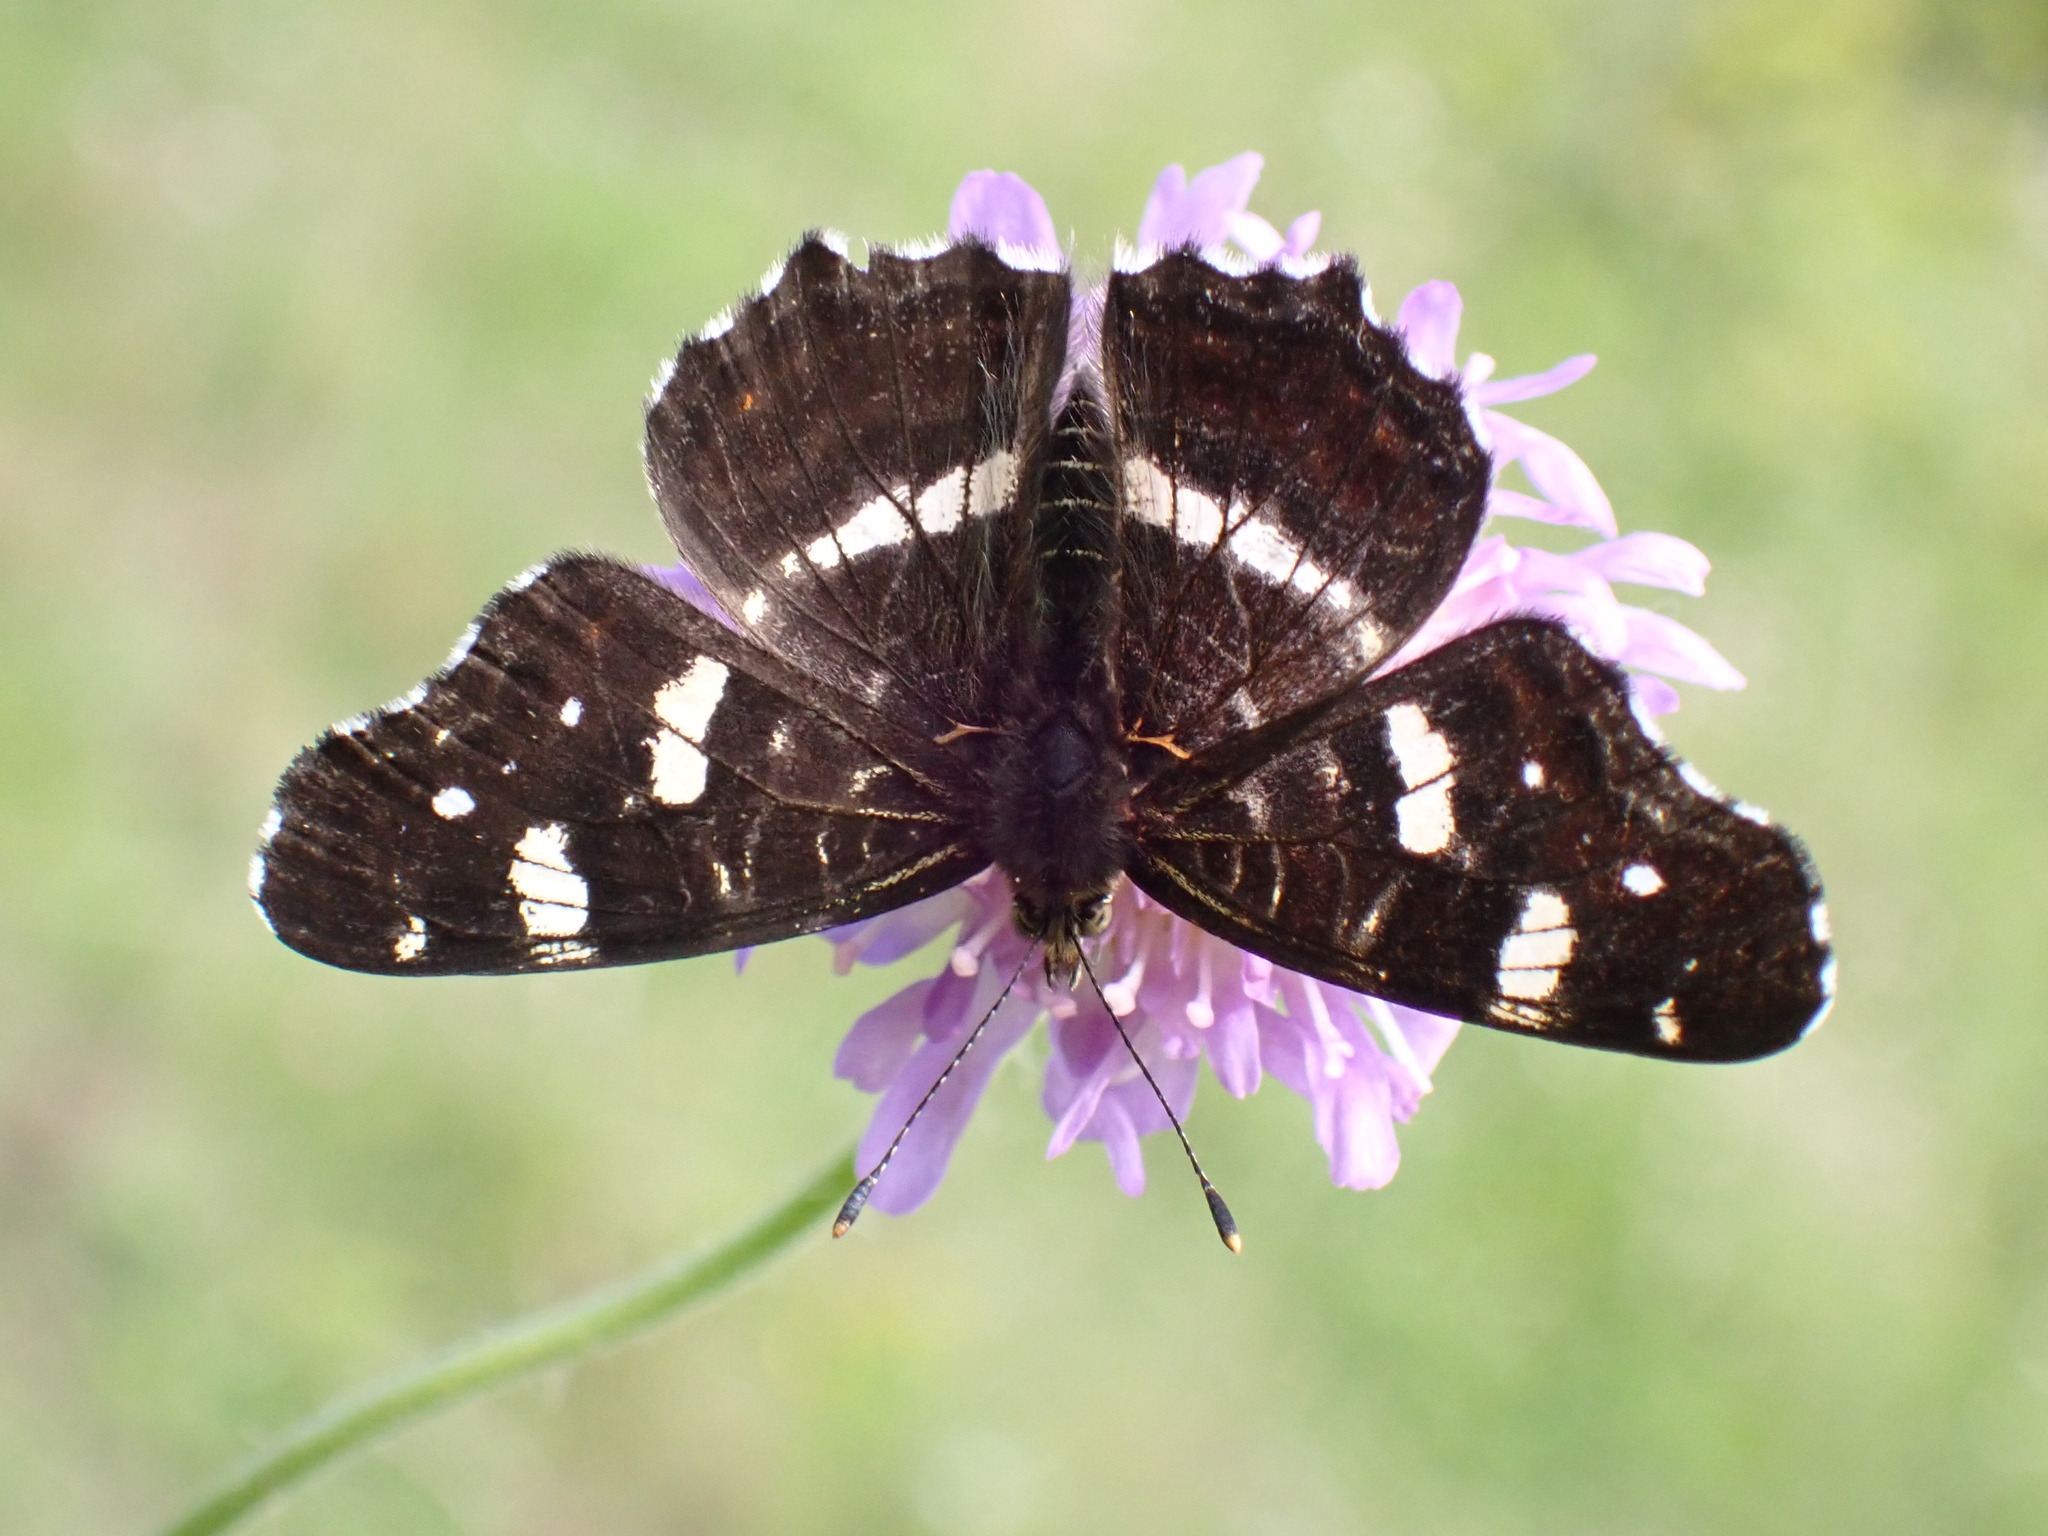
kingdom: Animalia
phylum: Arthropoda
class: Insecta
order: Lepidoptera
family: Nymphalidae
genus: Araschnia
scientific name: Araschnia levana
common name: Map butterfly
